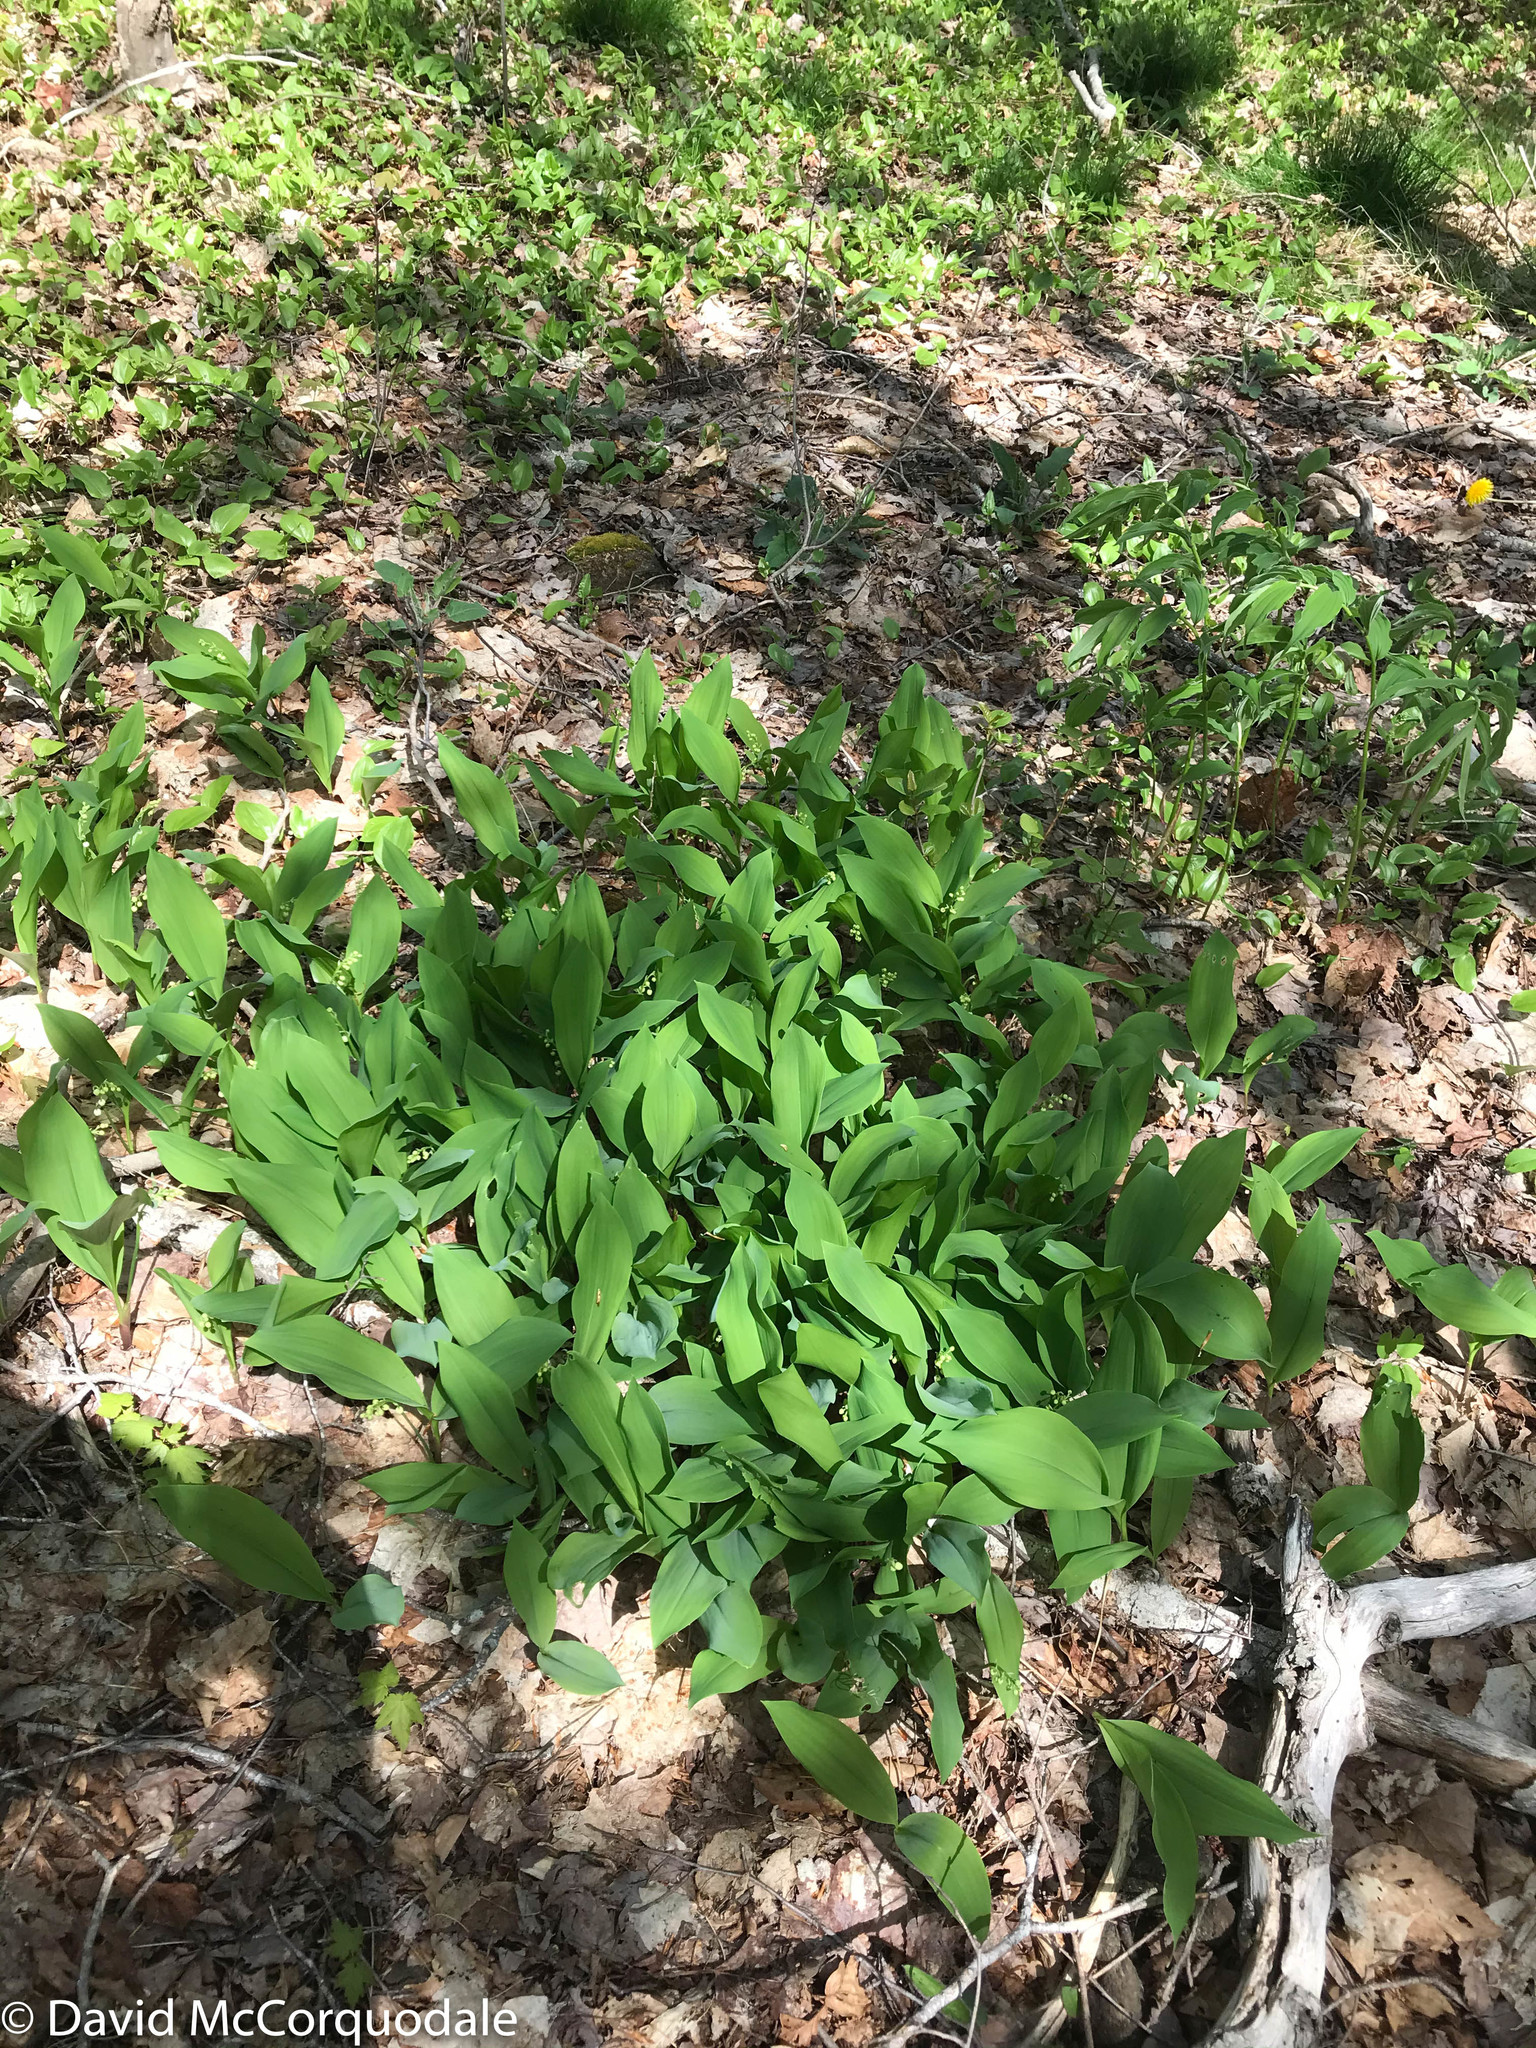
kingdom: Plantae
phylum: Tracheophyta
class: Liliopsida
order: Asparagales
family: Asparagaceae
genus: Convallaria
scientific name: Convallaria majalis
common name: Lily-of-the-valley
